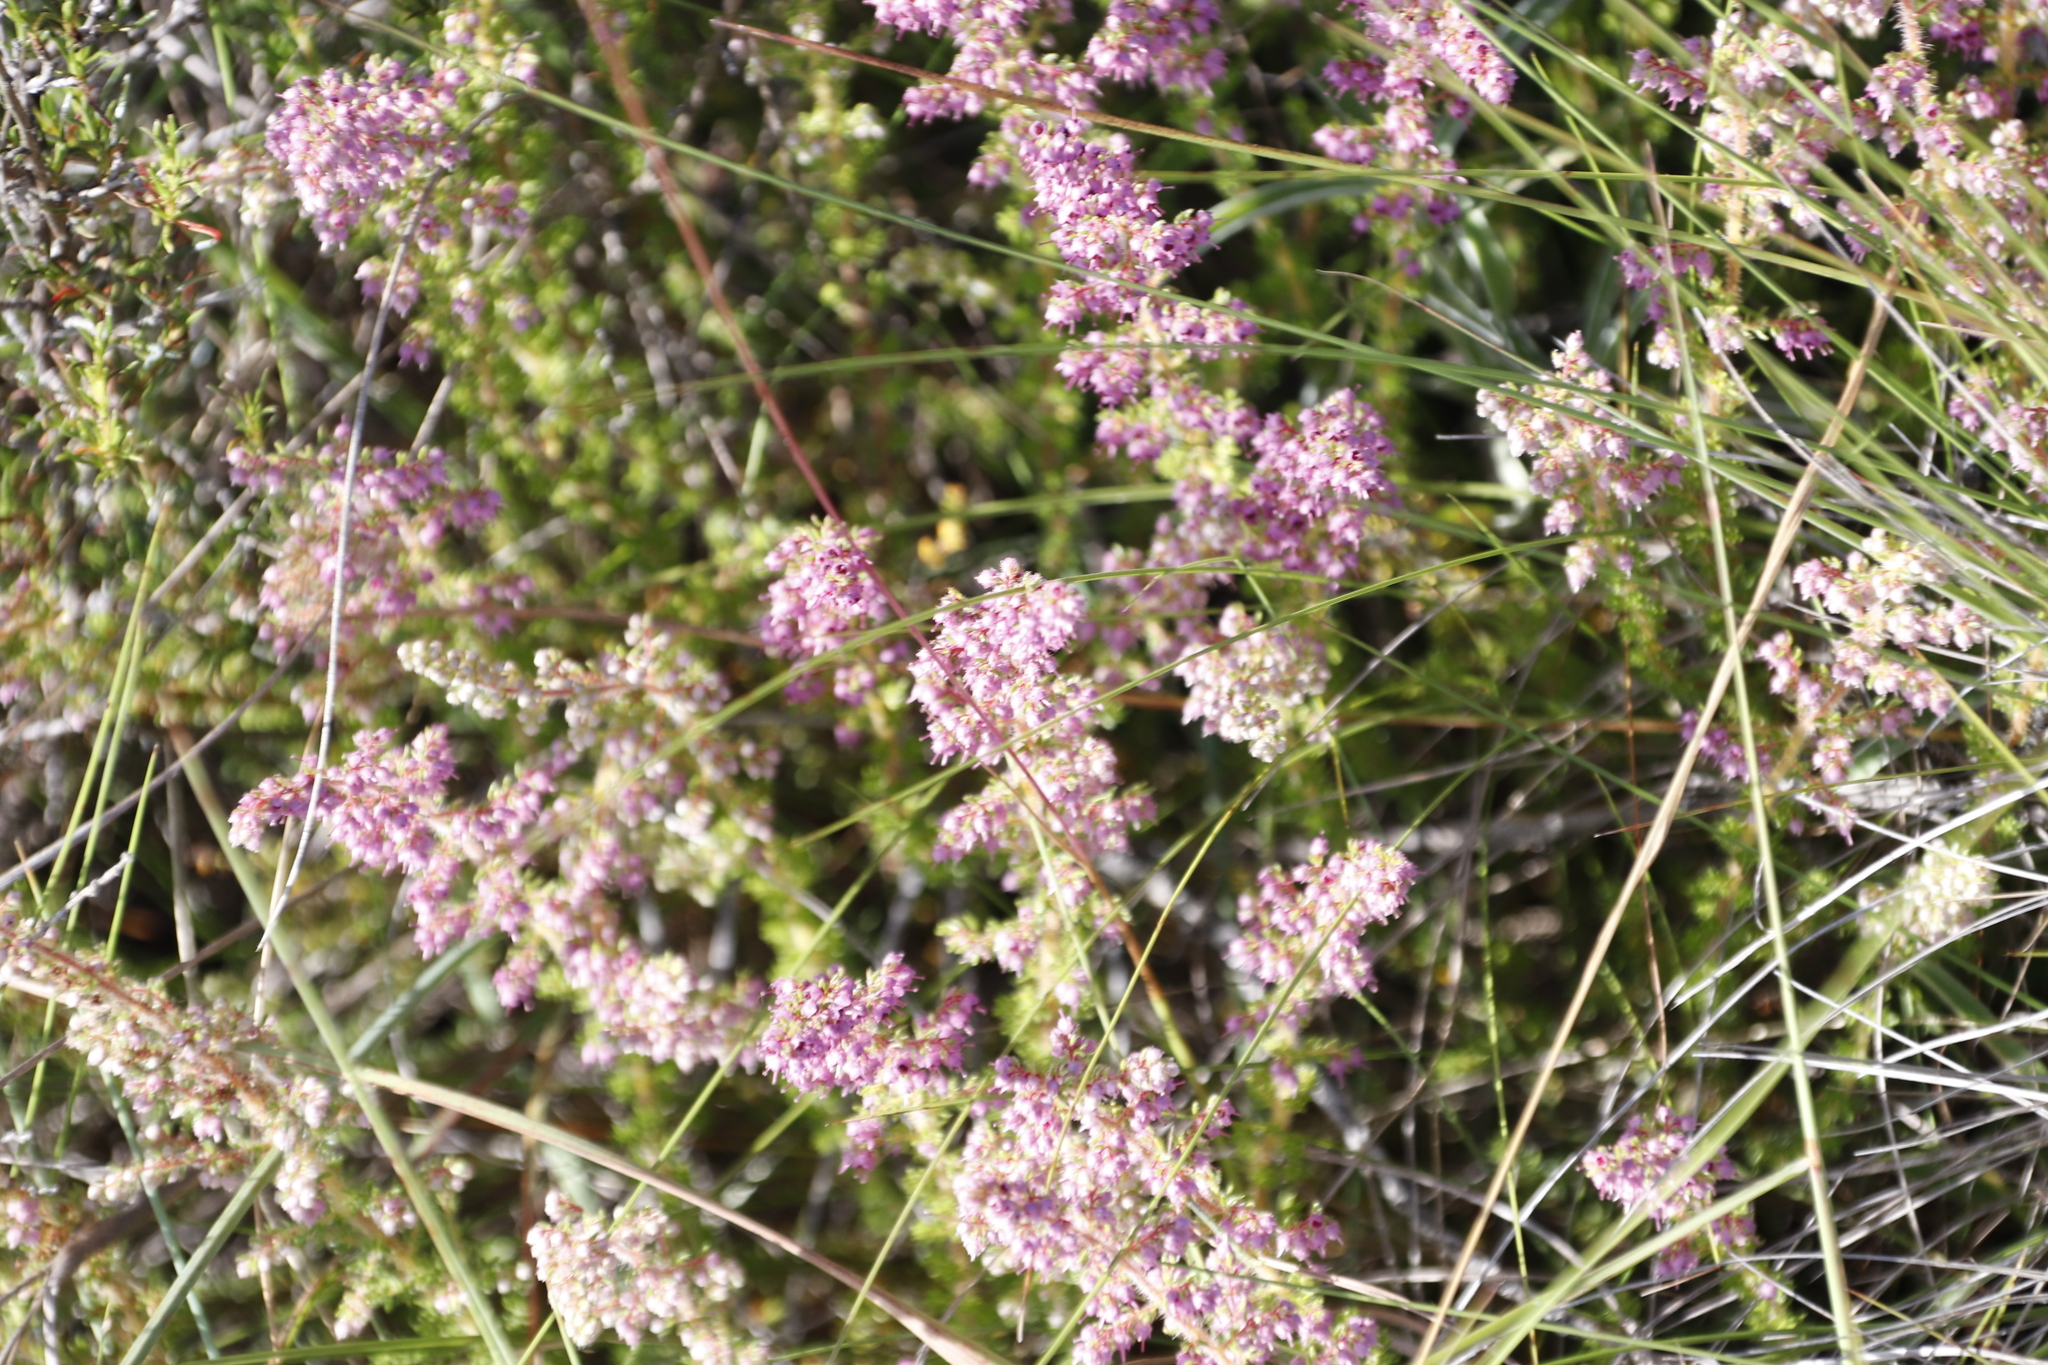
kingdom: Plantae
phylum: Tracheophyta
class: Magnoliopsida
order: Ericales
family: Ericaceae
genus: Erica
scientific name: Erica woodii
